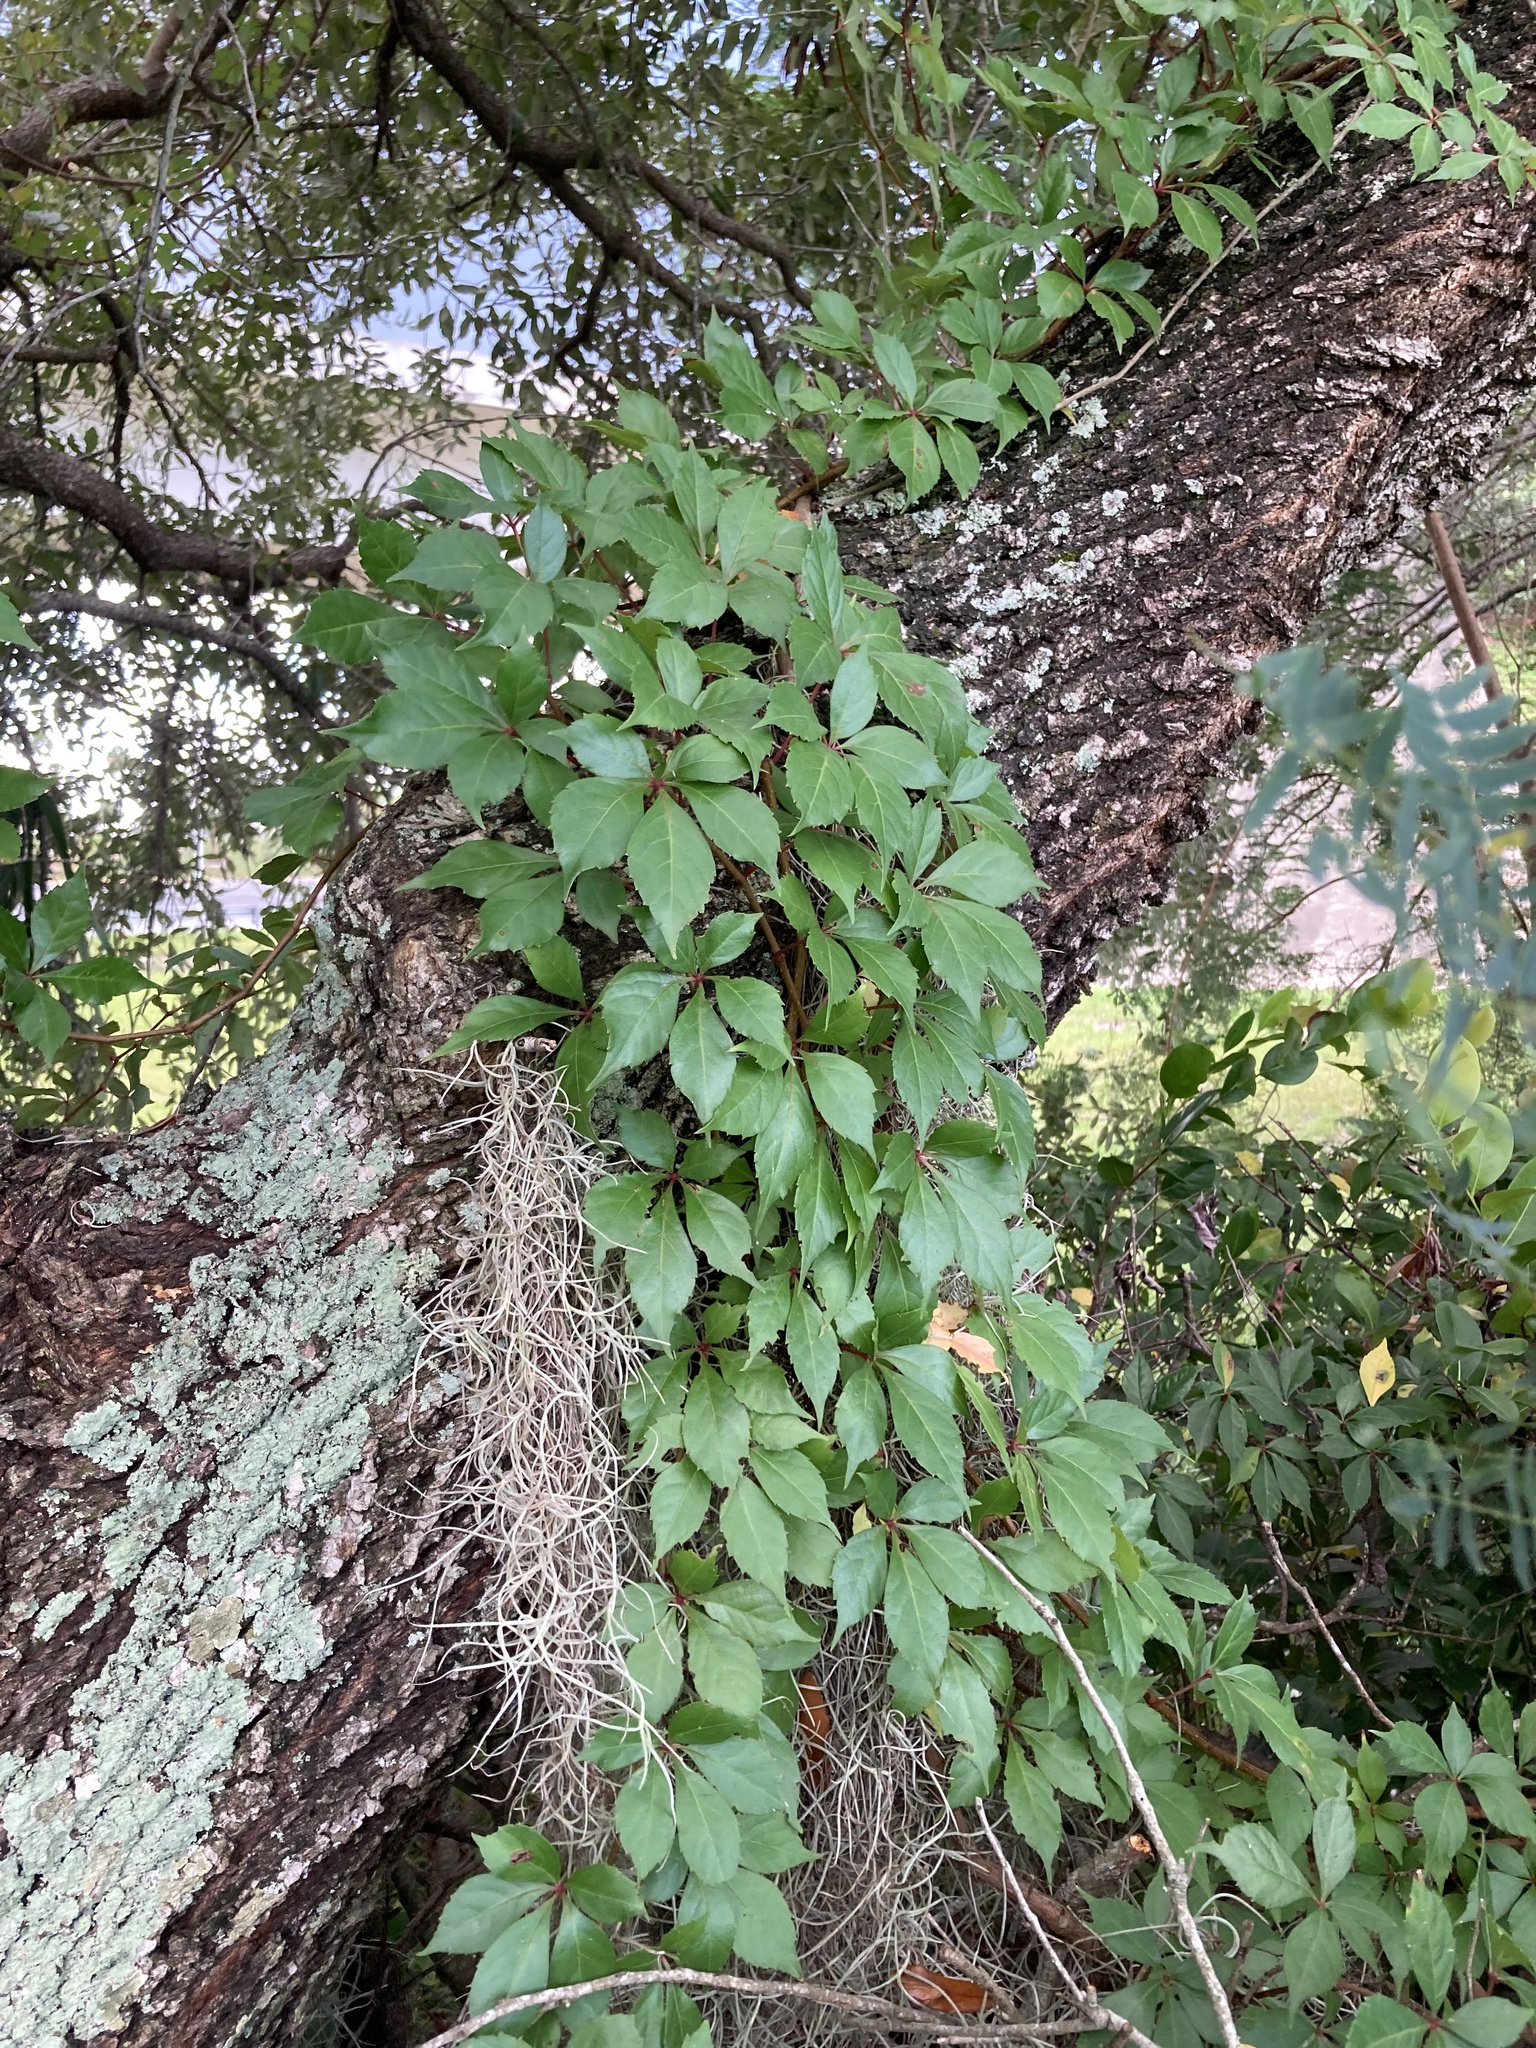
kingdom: Plantae
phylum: Tracheophyta
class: Magnoliopsida
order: Vitales
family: Vitaceae
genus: Parthenocissus
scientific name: Parthenocissus quinquefolia
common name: Virginia-creeper
